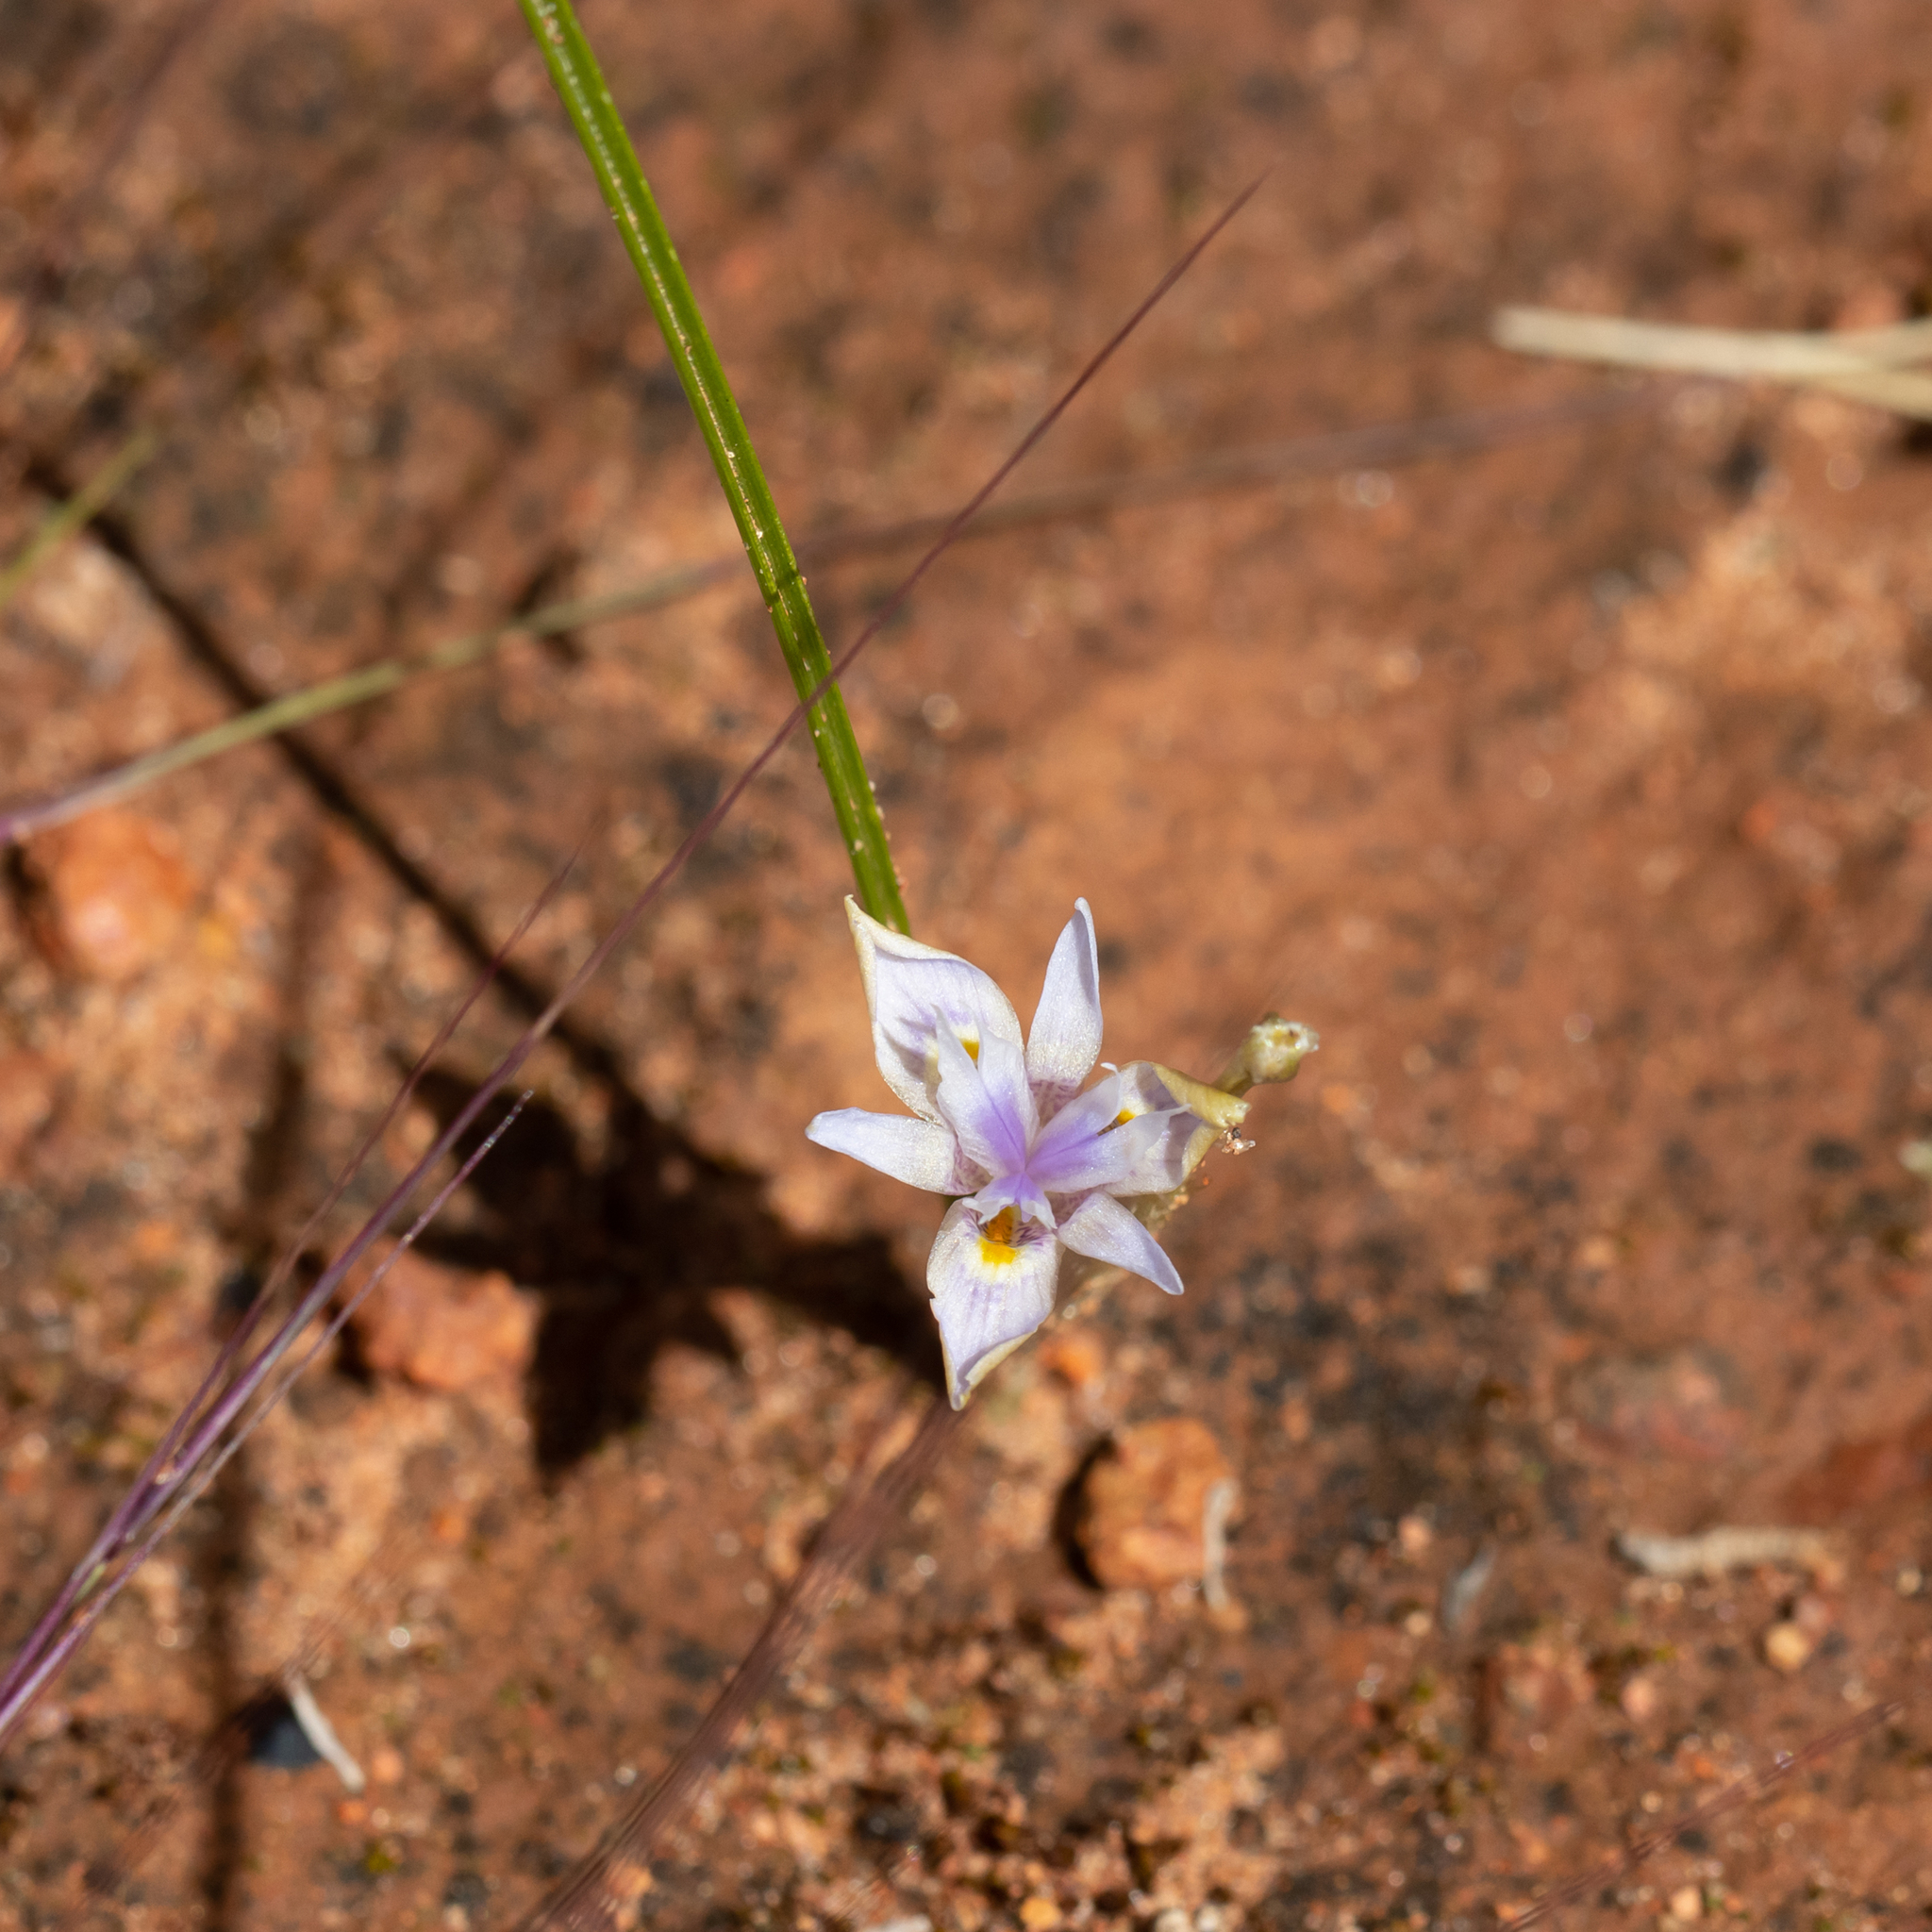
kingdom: Plantae
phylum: Tracheophyta
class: Liliopsida
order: Asparagales
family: Iridaceae
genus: Moraea
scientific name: Moraea setifolia
